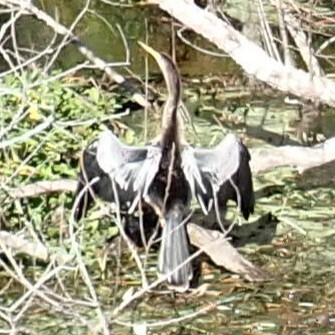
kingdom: Animalia
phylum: Chordata
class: Aves
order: Suliformes
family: Anhingidae
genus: Anhinga
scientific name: Anhinga anhinga
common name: Anhinga
